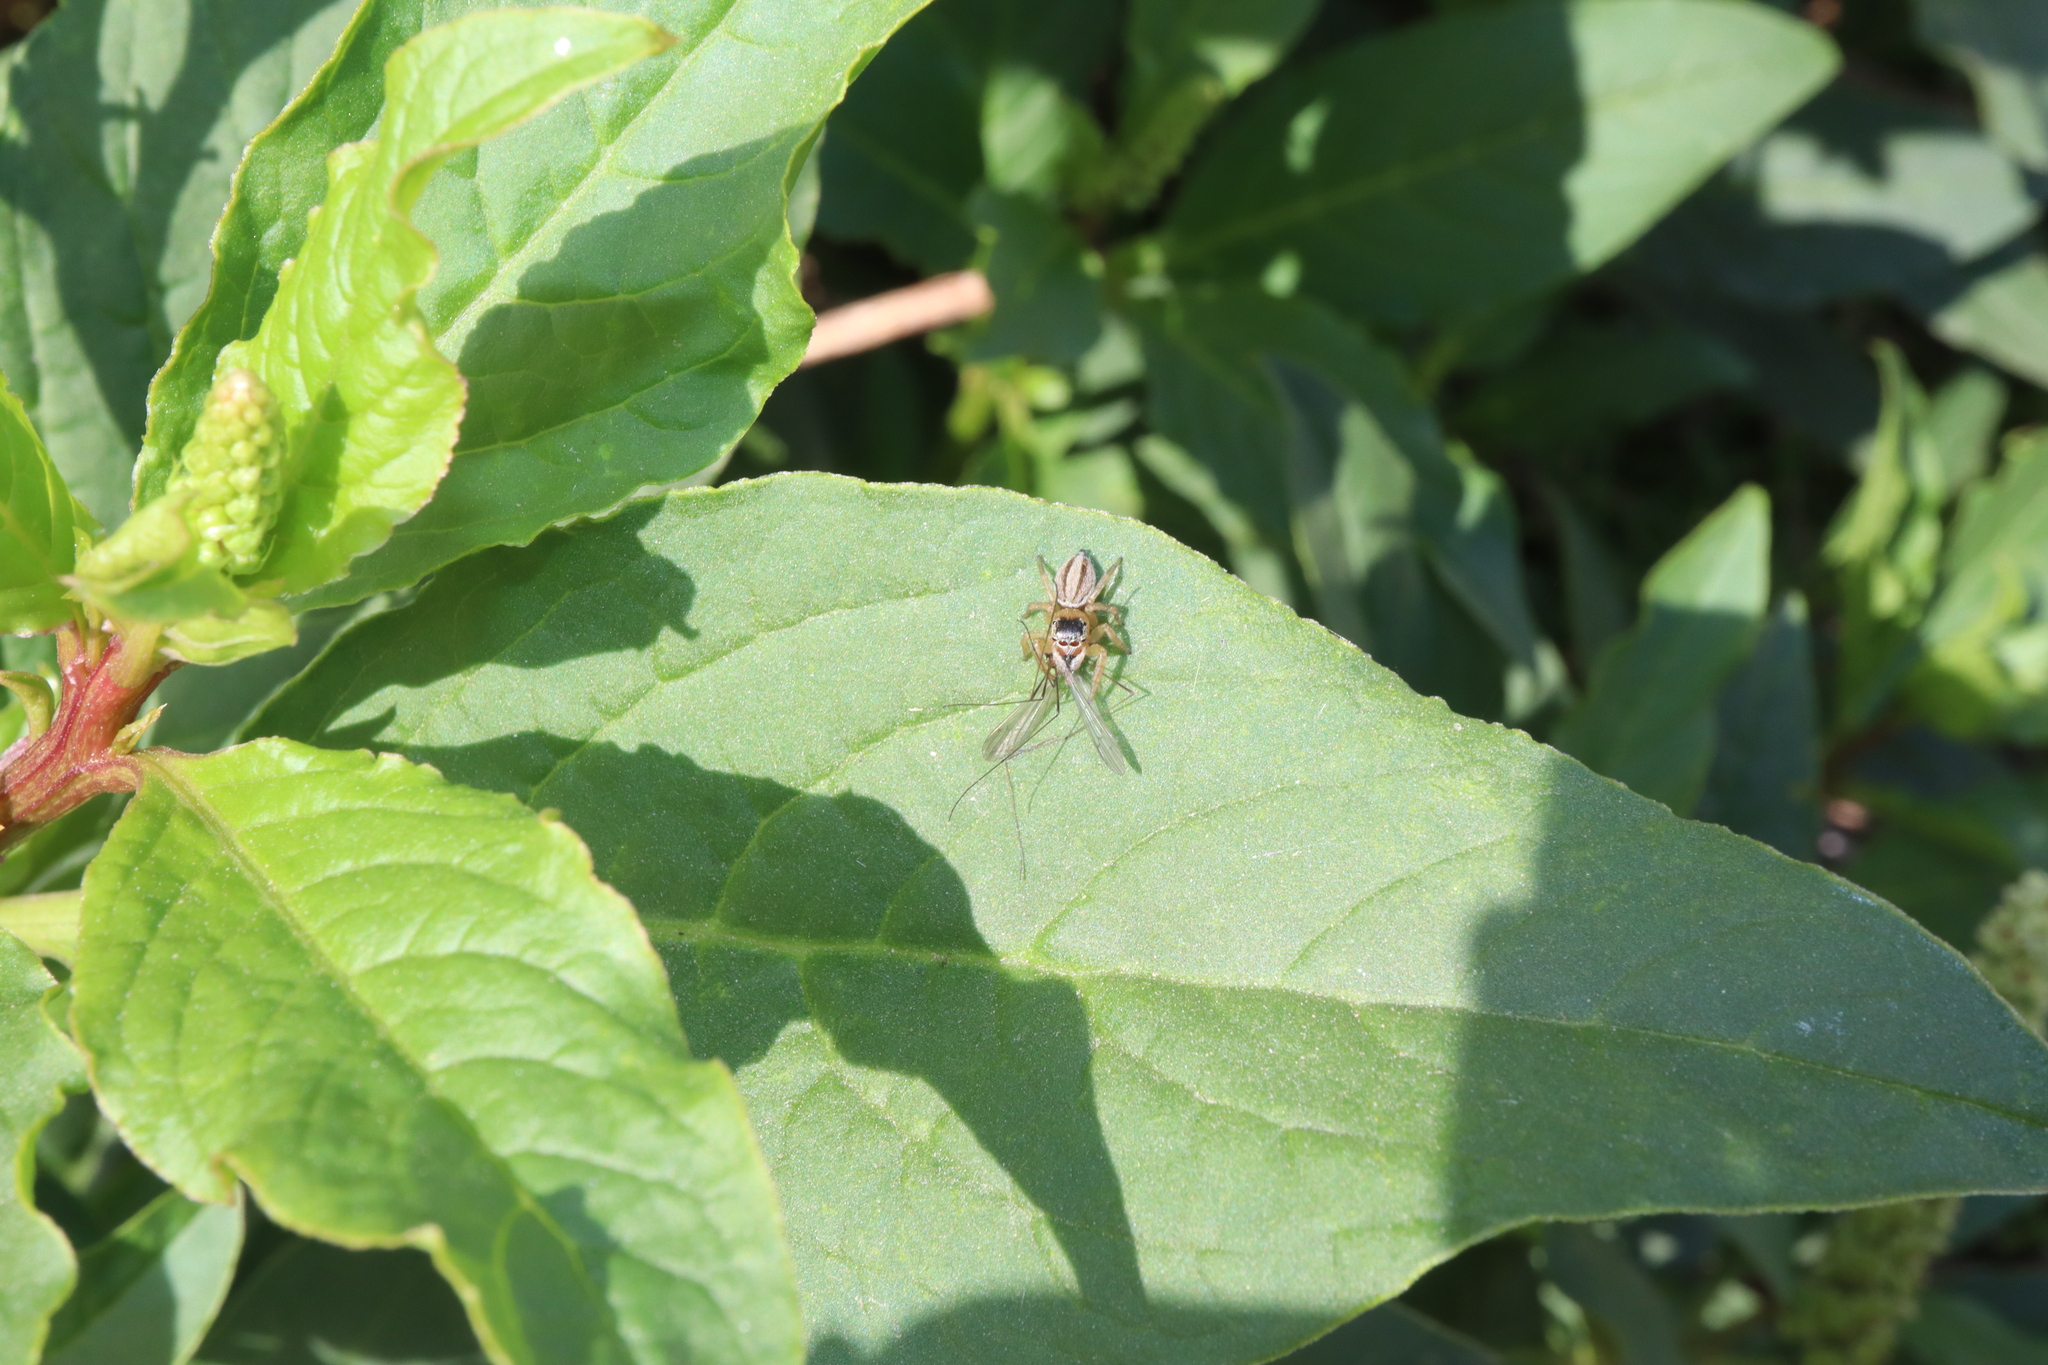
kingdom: Animalia
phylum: Arthropoda
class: Arachnida
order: Araneae
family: Salticidae
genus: Maratus
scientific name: Maratus scutulatus
